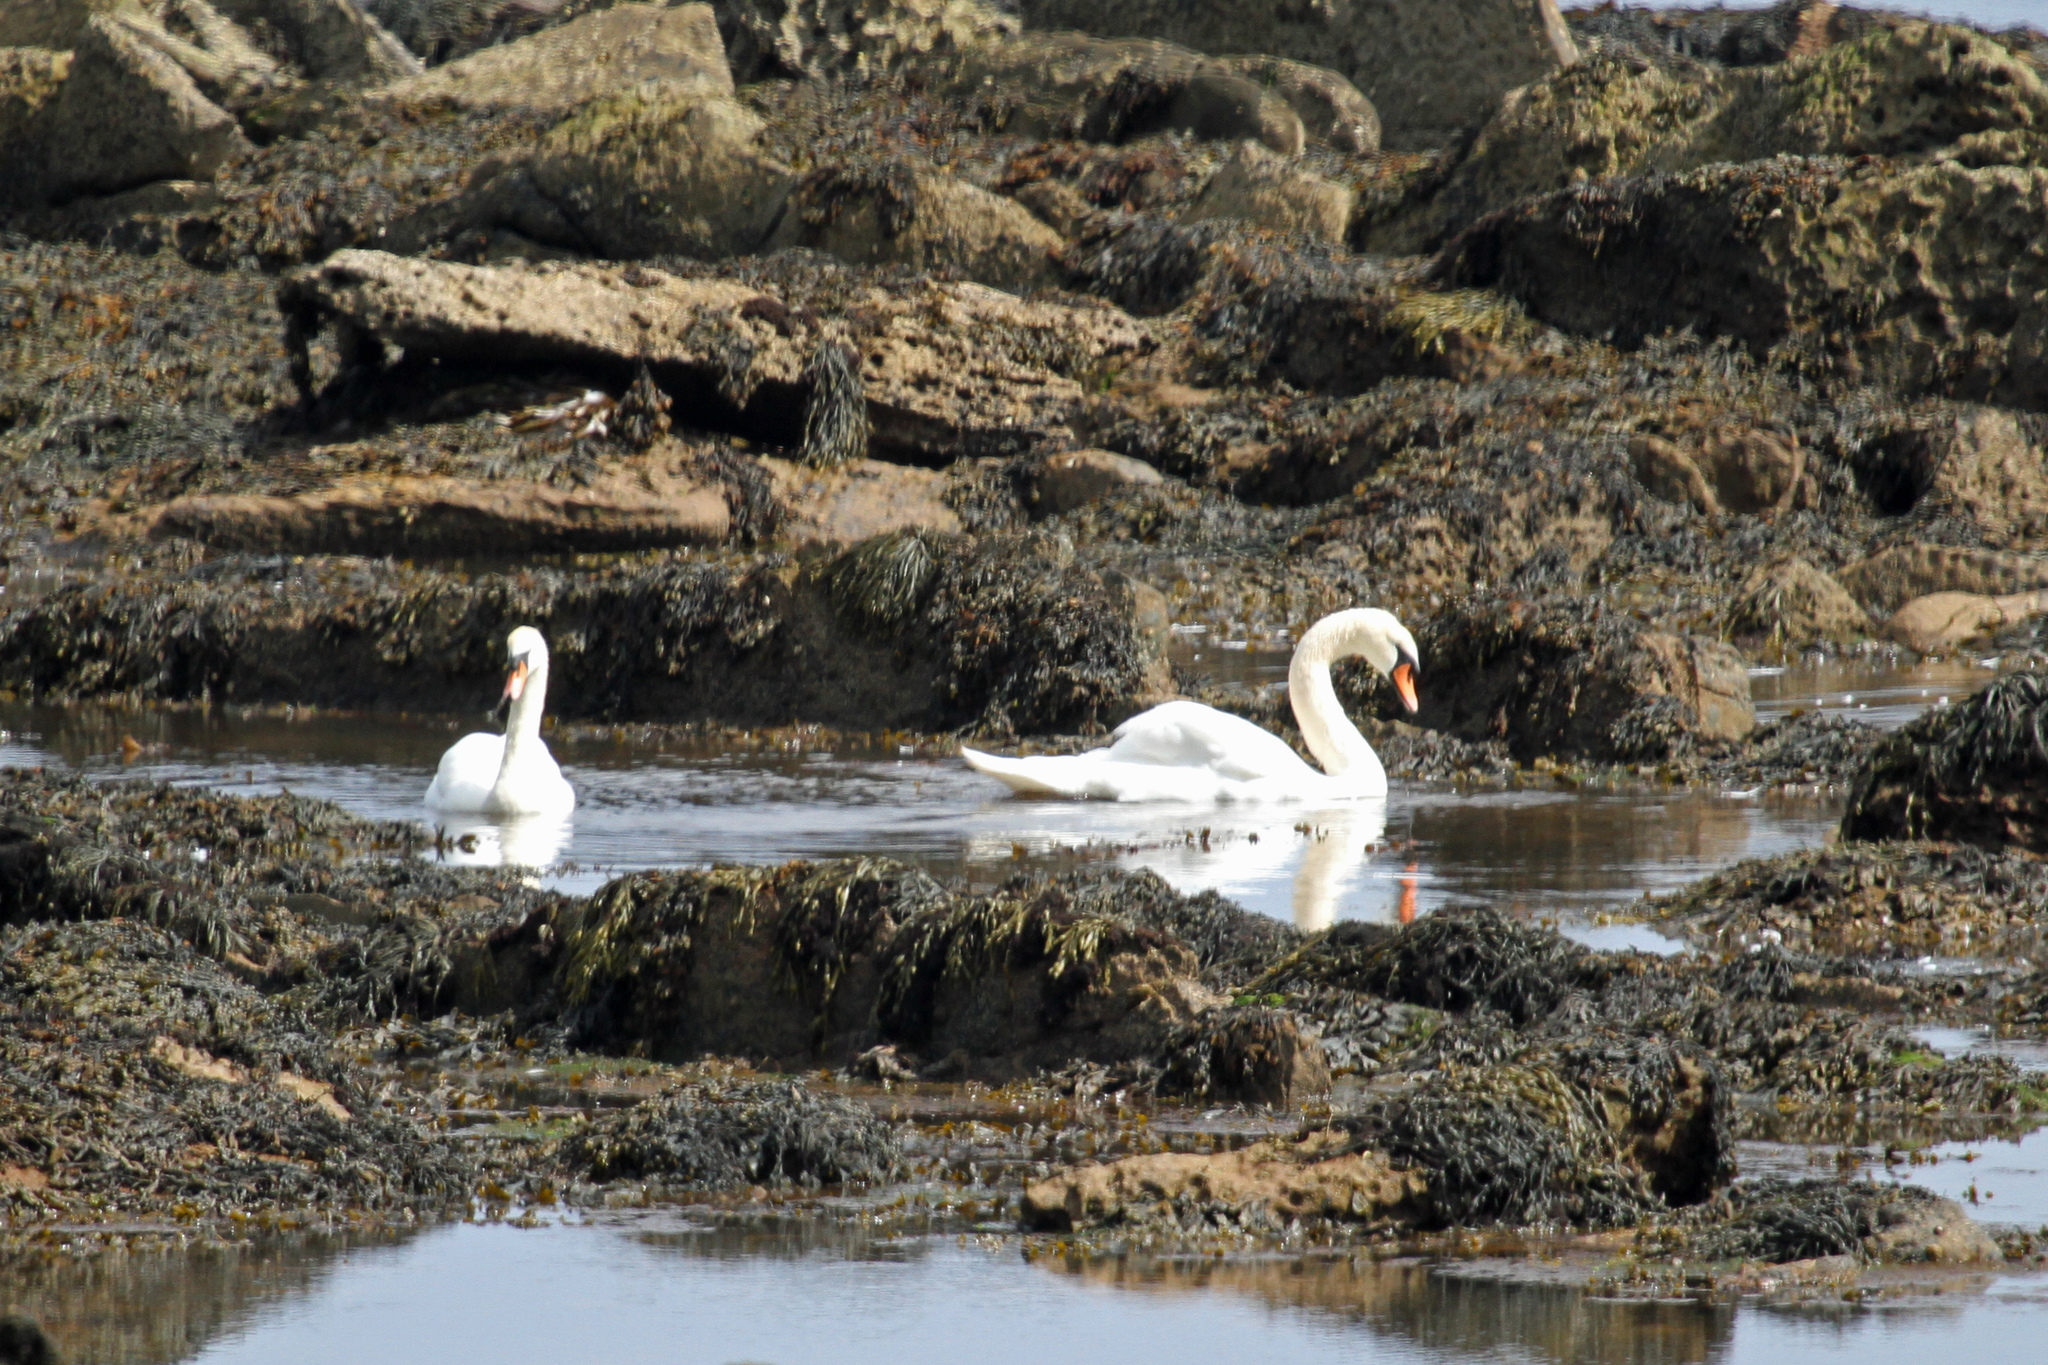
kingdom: Animalia
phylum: Chordata
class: Aves
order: Anseriformes
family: Anatidae
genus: Cygnus
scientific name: Cygnus olor
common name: Mute swan
